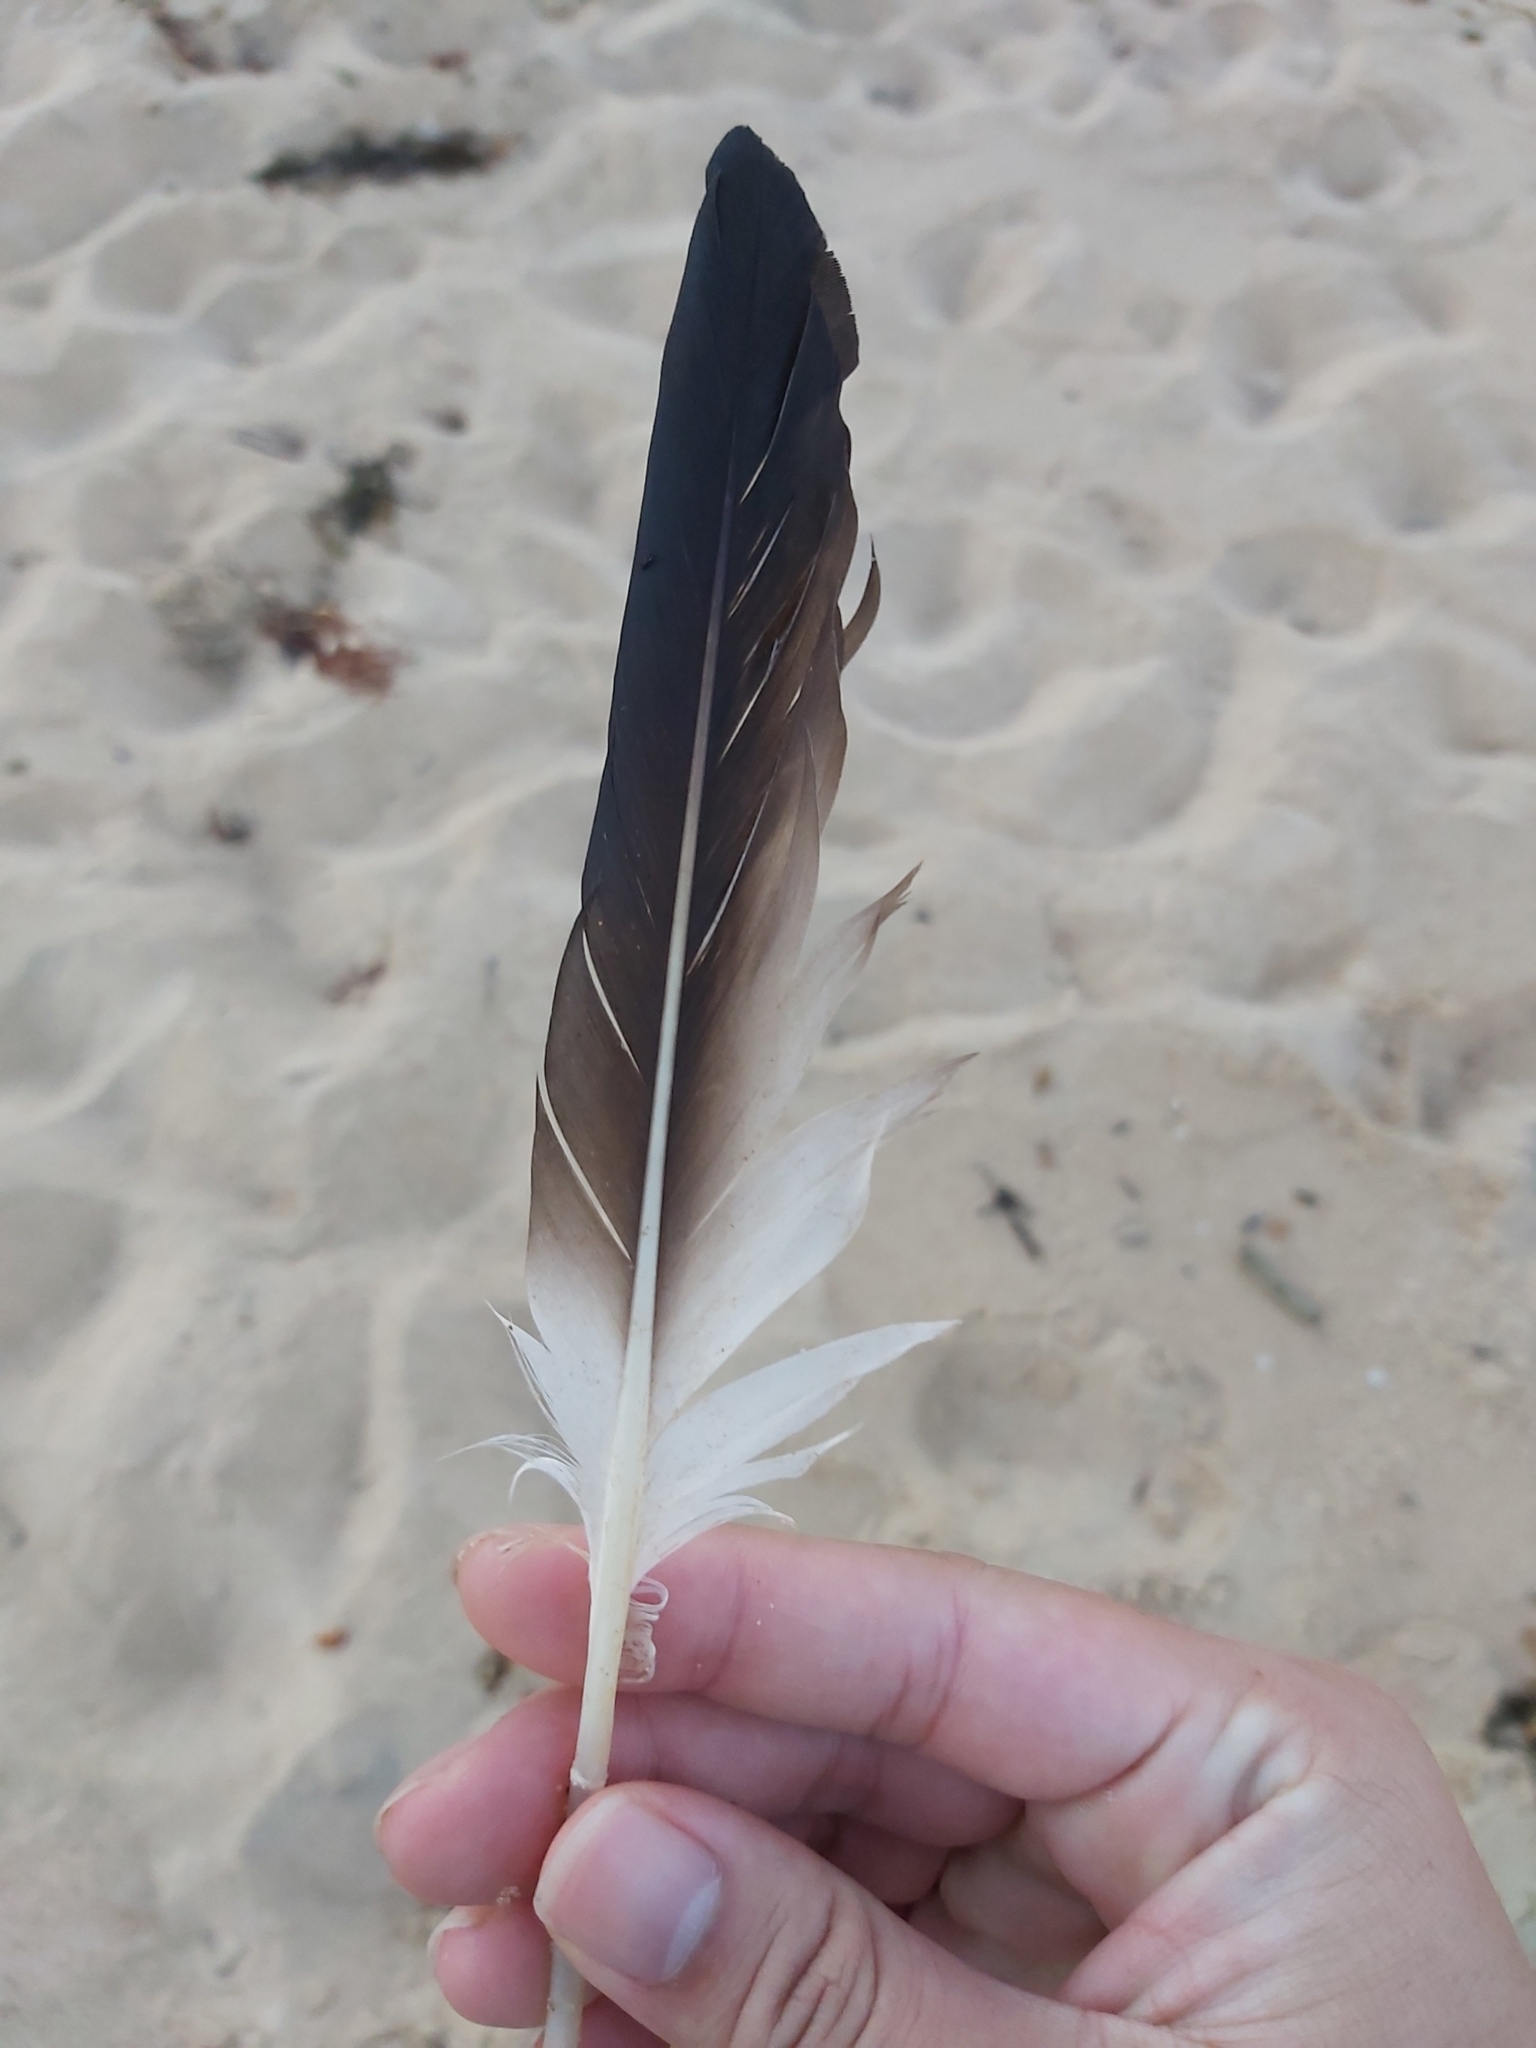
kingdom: Animalia
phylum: Chordata
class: Aves
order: Suliformes
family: Sulidae
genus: Morus
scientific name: Morus serrator
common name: Australasian gannet
